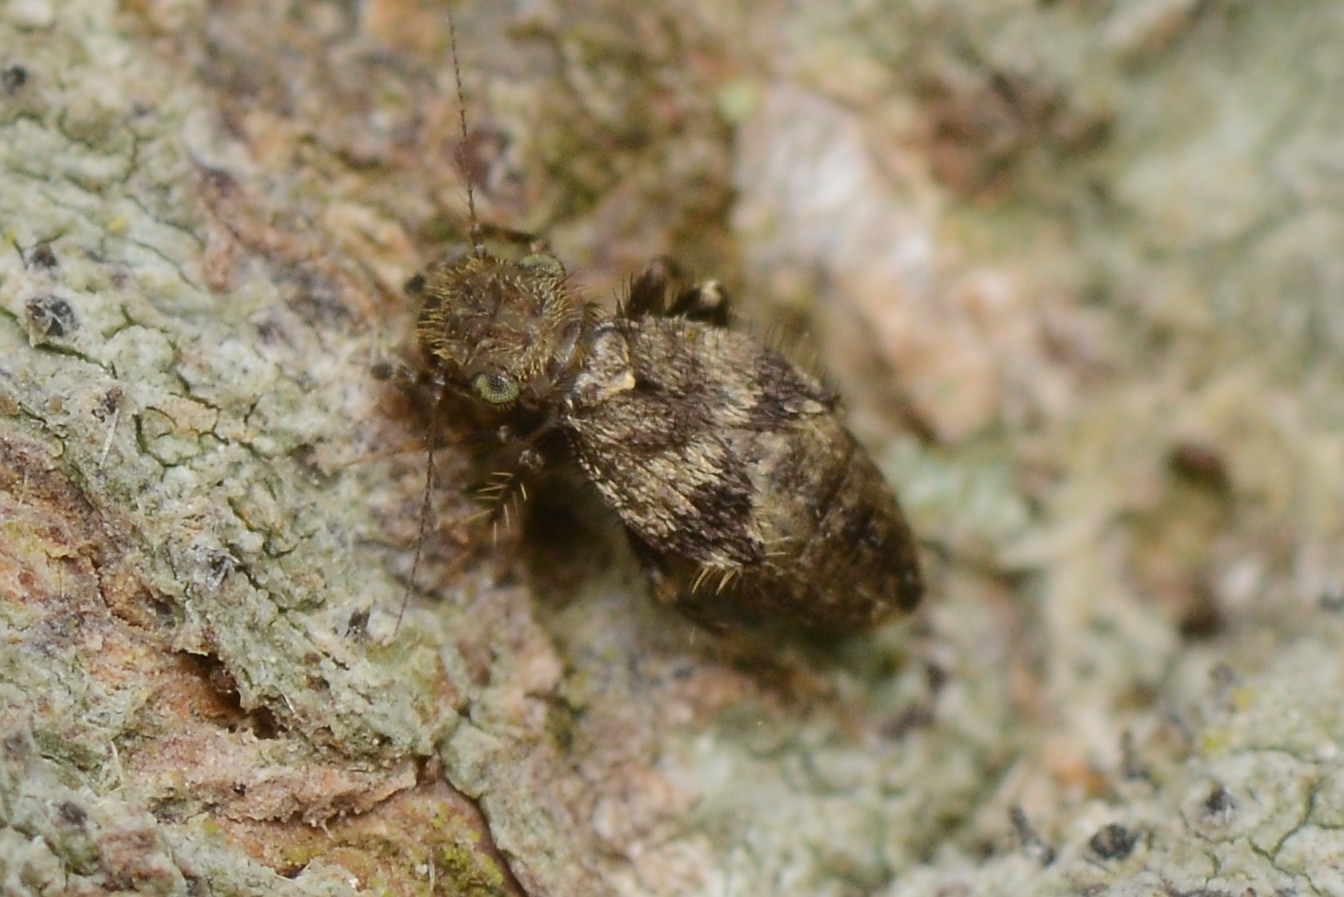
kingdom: Animalia
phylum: Arthropoda
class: Insecta
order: Psocodea
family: Lepidopsocidae
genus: Pteroxanium
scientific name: Pteroxanium kelloggi
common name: Bark lice
